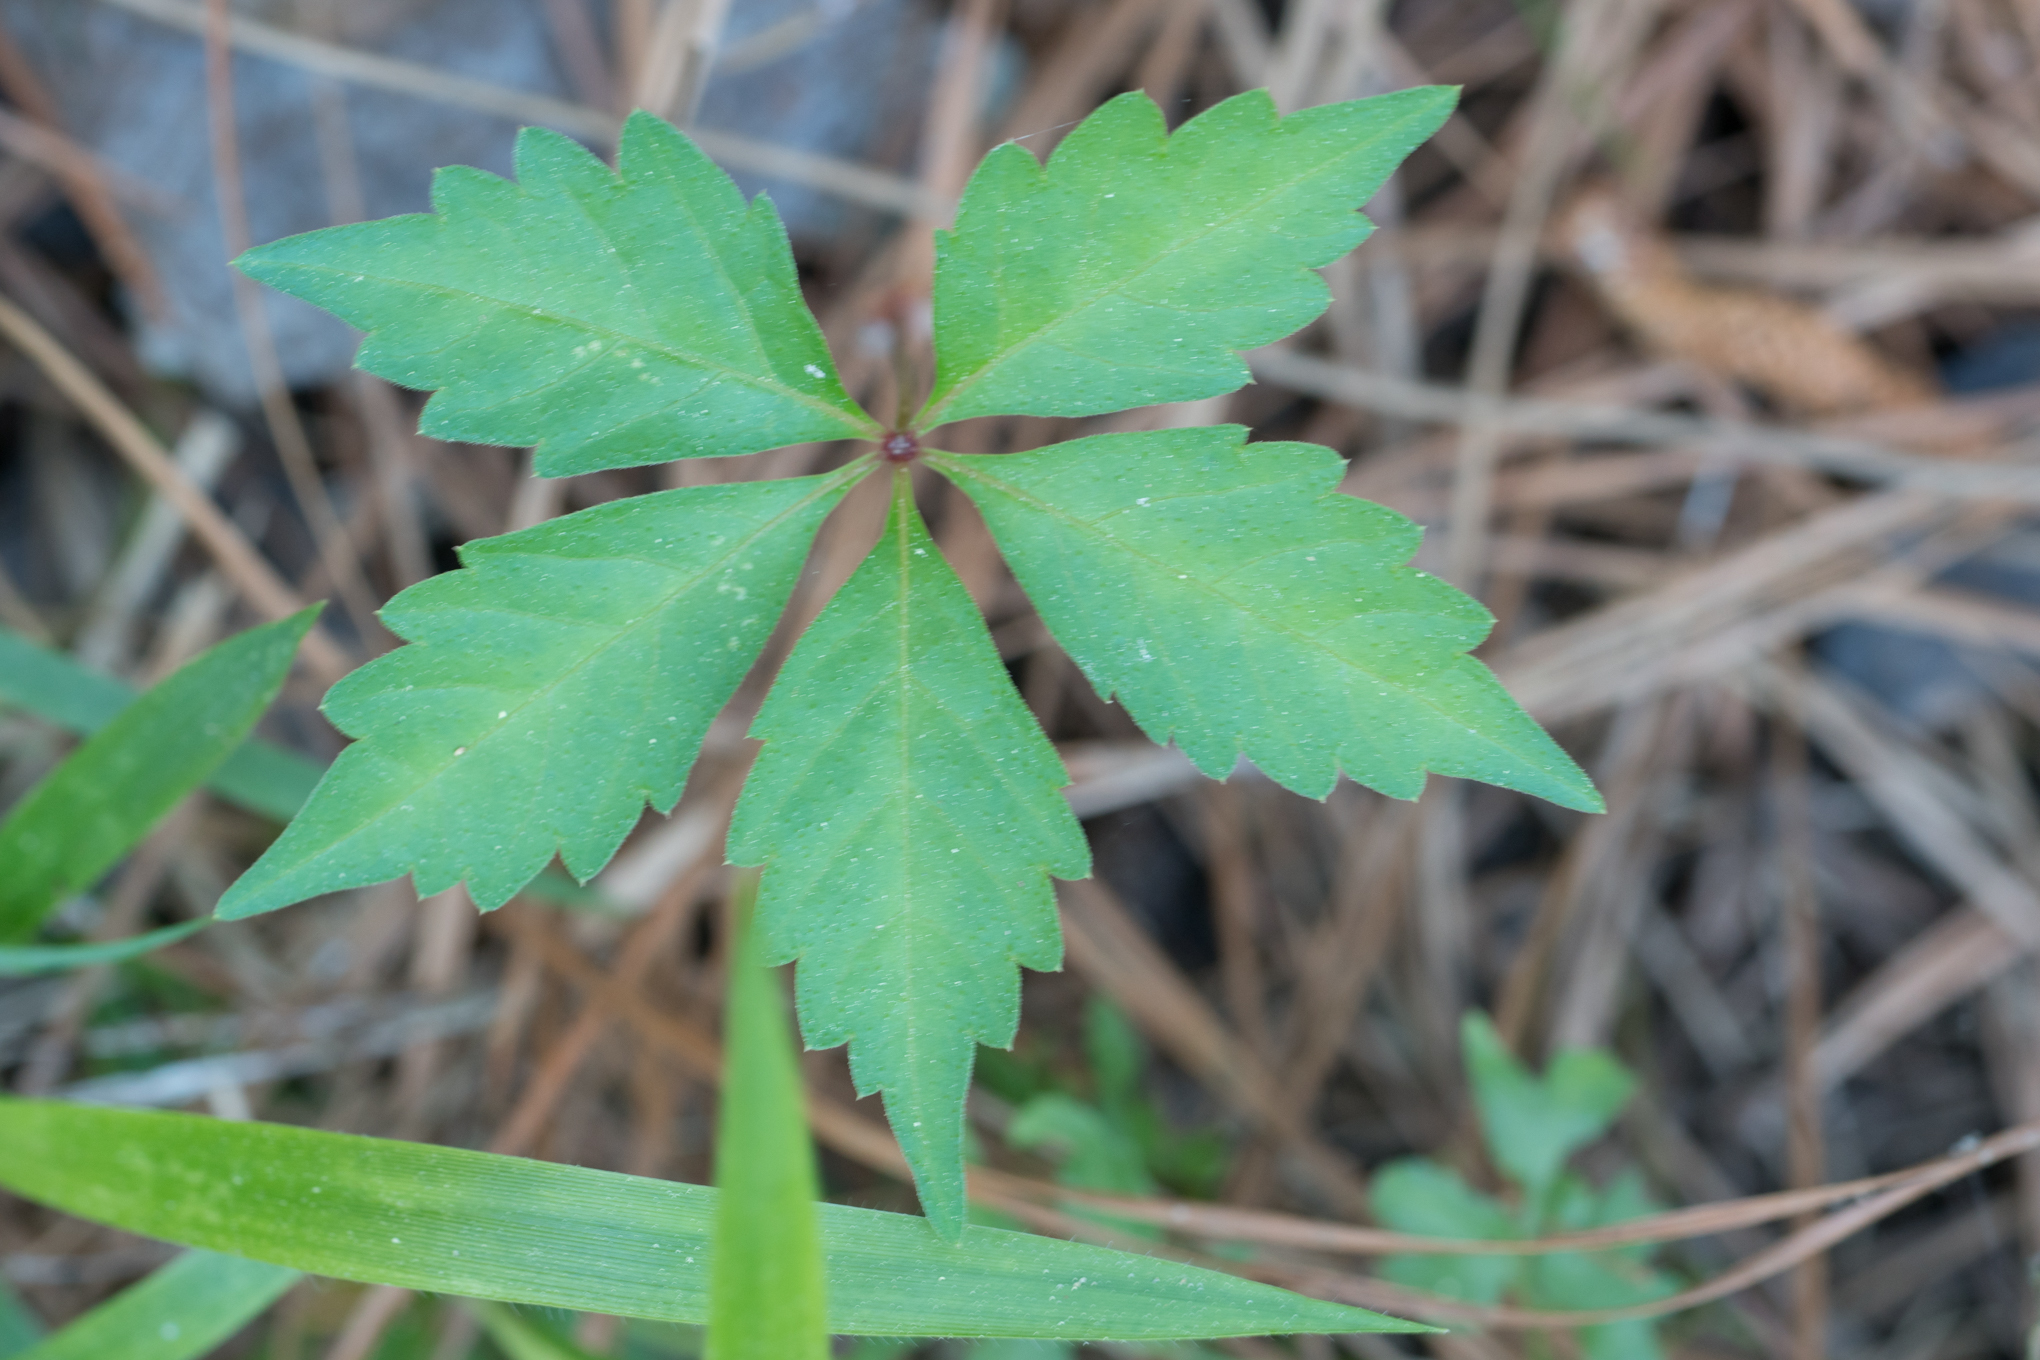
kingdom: Plantae
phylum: Tracheophyta
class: Magnoliopsida
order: Vitales
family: Vitaceae
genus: Parthenocissus
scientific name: Parthenocissus quinquefolia
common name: Virginia-creeper
